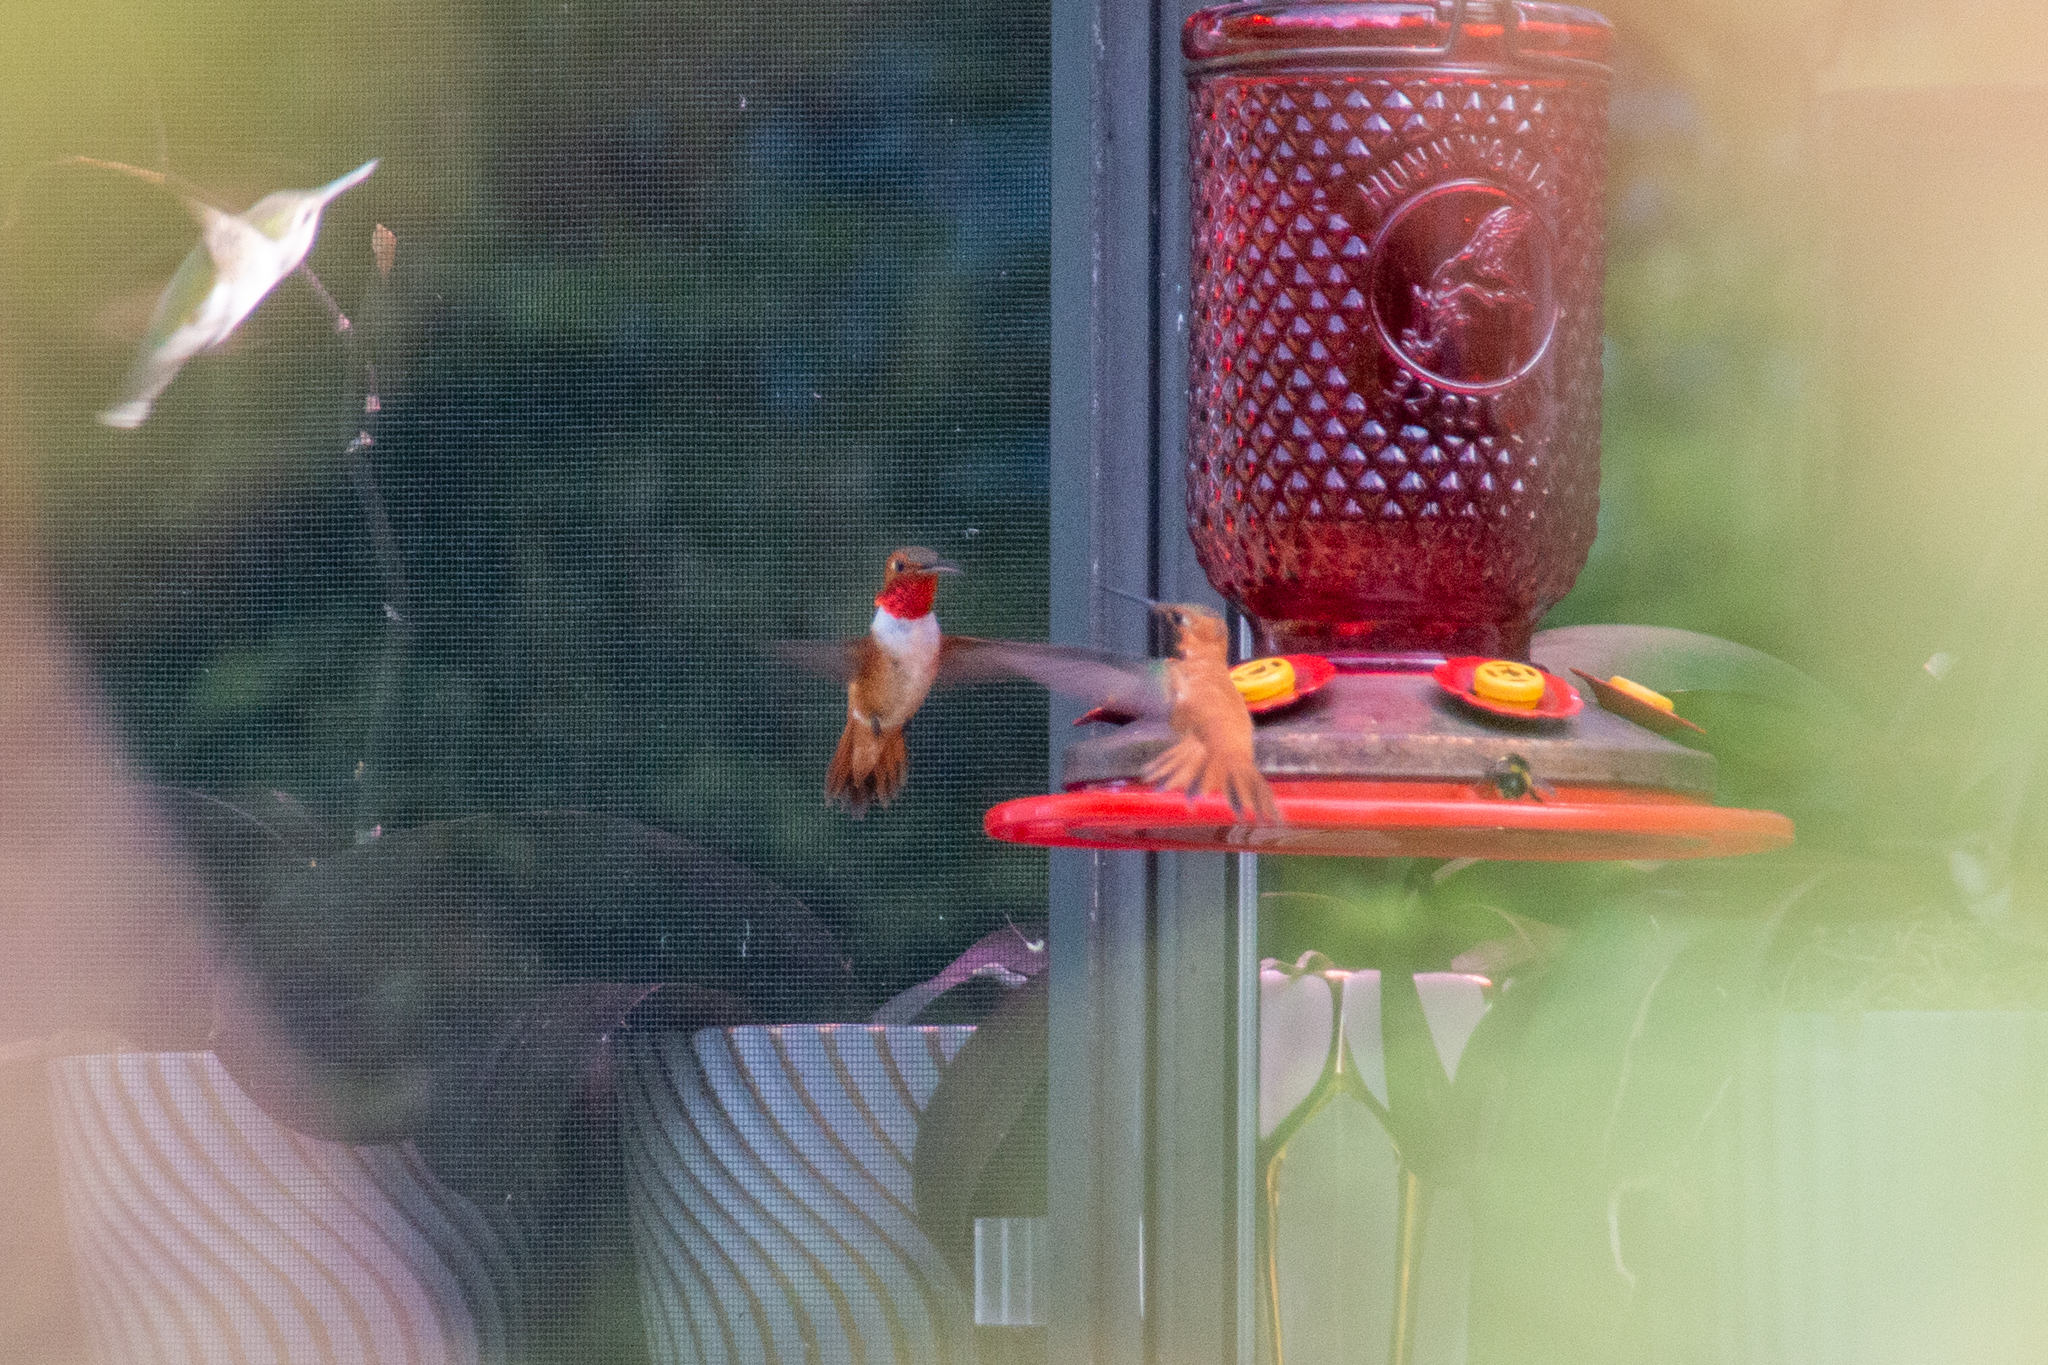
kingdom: Animalia
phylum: Chordata
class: Aves
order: Apodiformes
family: Trochilidae
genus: Selasphorus
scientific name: Selasphorus rufus
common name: Rufous hummingbird
